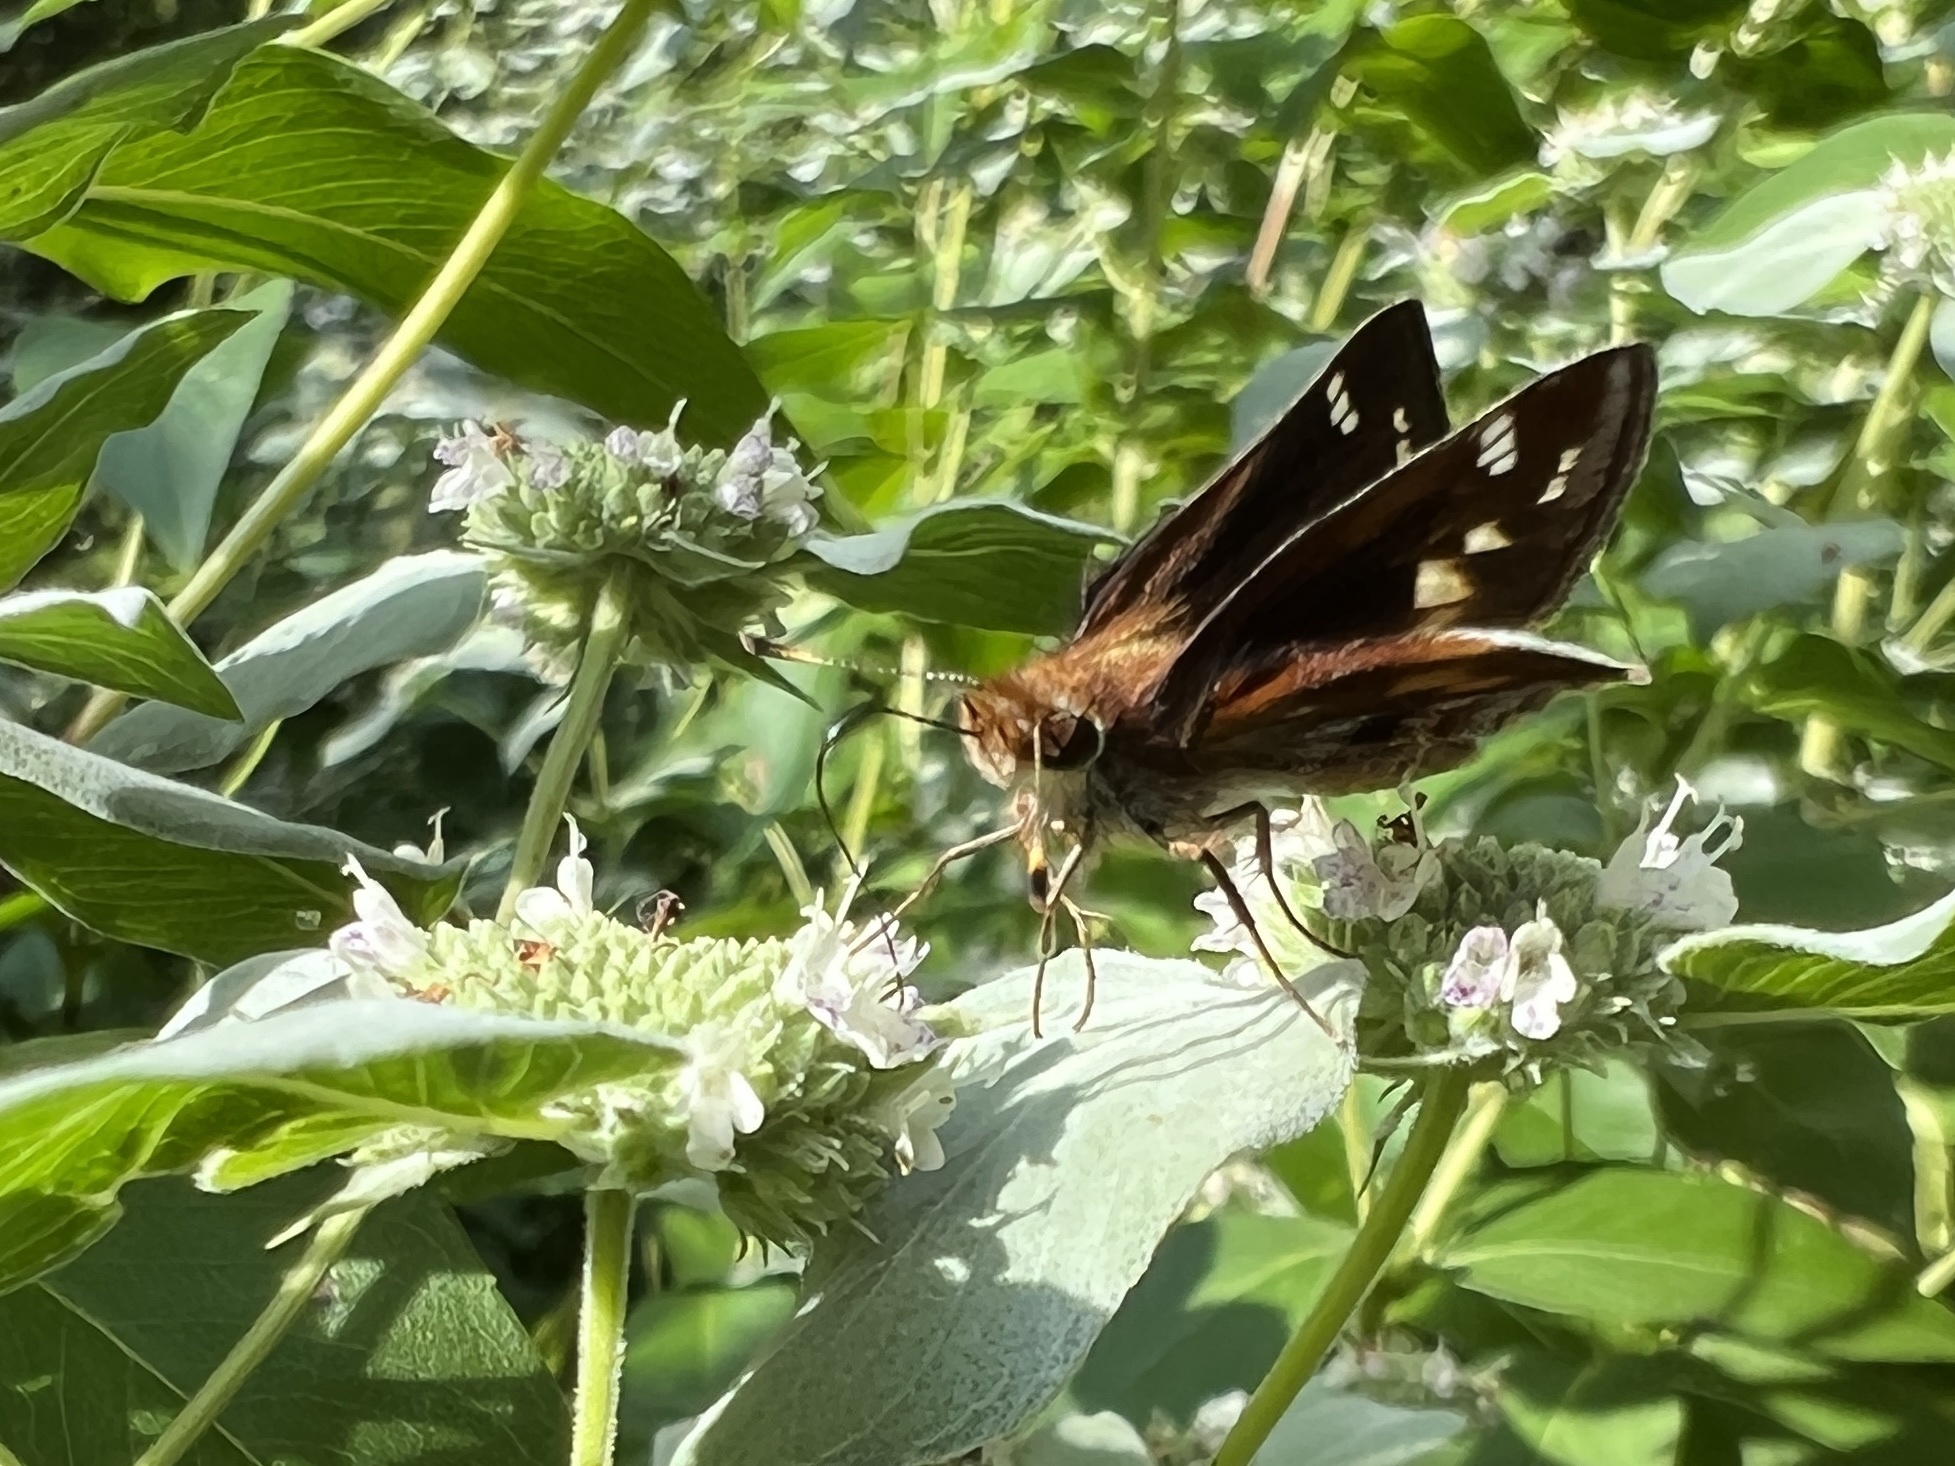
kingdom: Animalia
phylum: Arthropoda
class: Insecta
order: Lepidoptera
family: Hesperiidae
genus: Lon
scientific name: Lon zabulon
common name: Zabulon skipper
